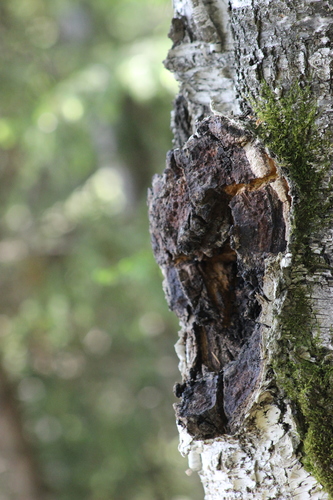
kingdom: Fungi
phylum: Basidiomycota
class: Agaricomycetes
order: Hymenochaetales
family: Hymenochaetaceae
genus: Inonotus
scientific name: Inonotus obliquus
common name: Chaga
